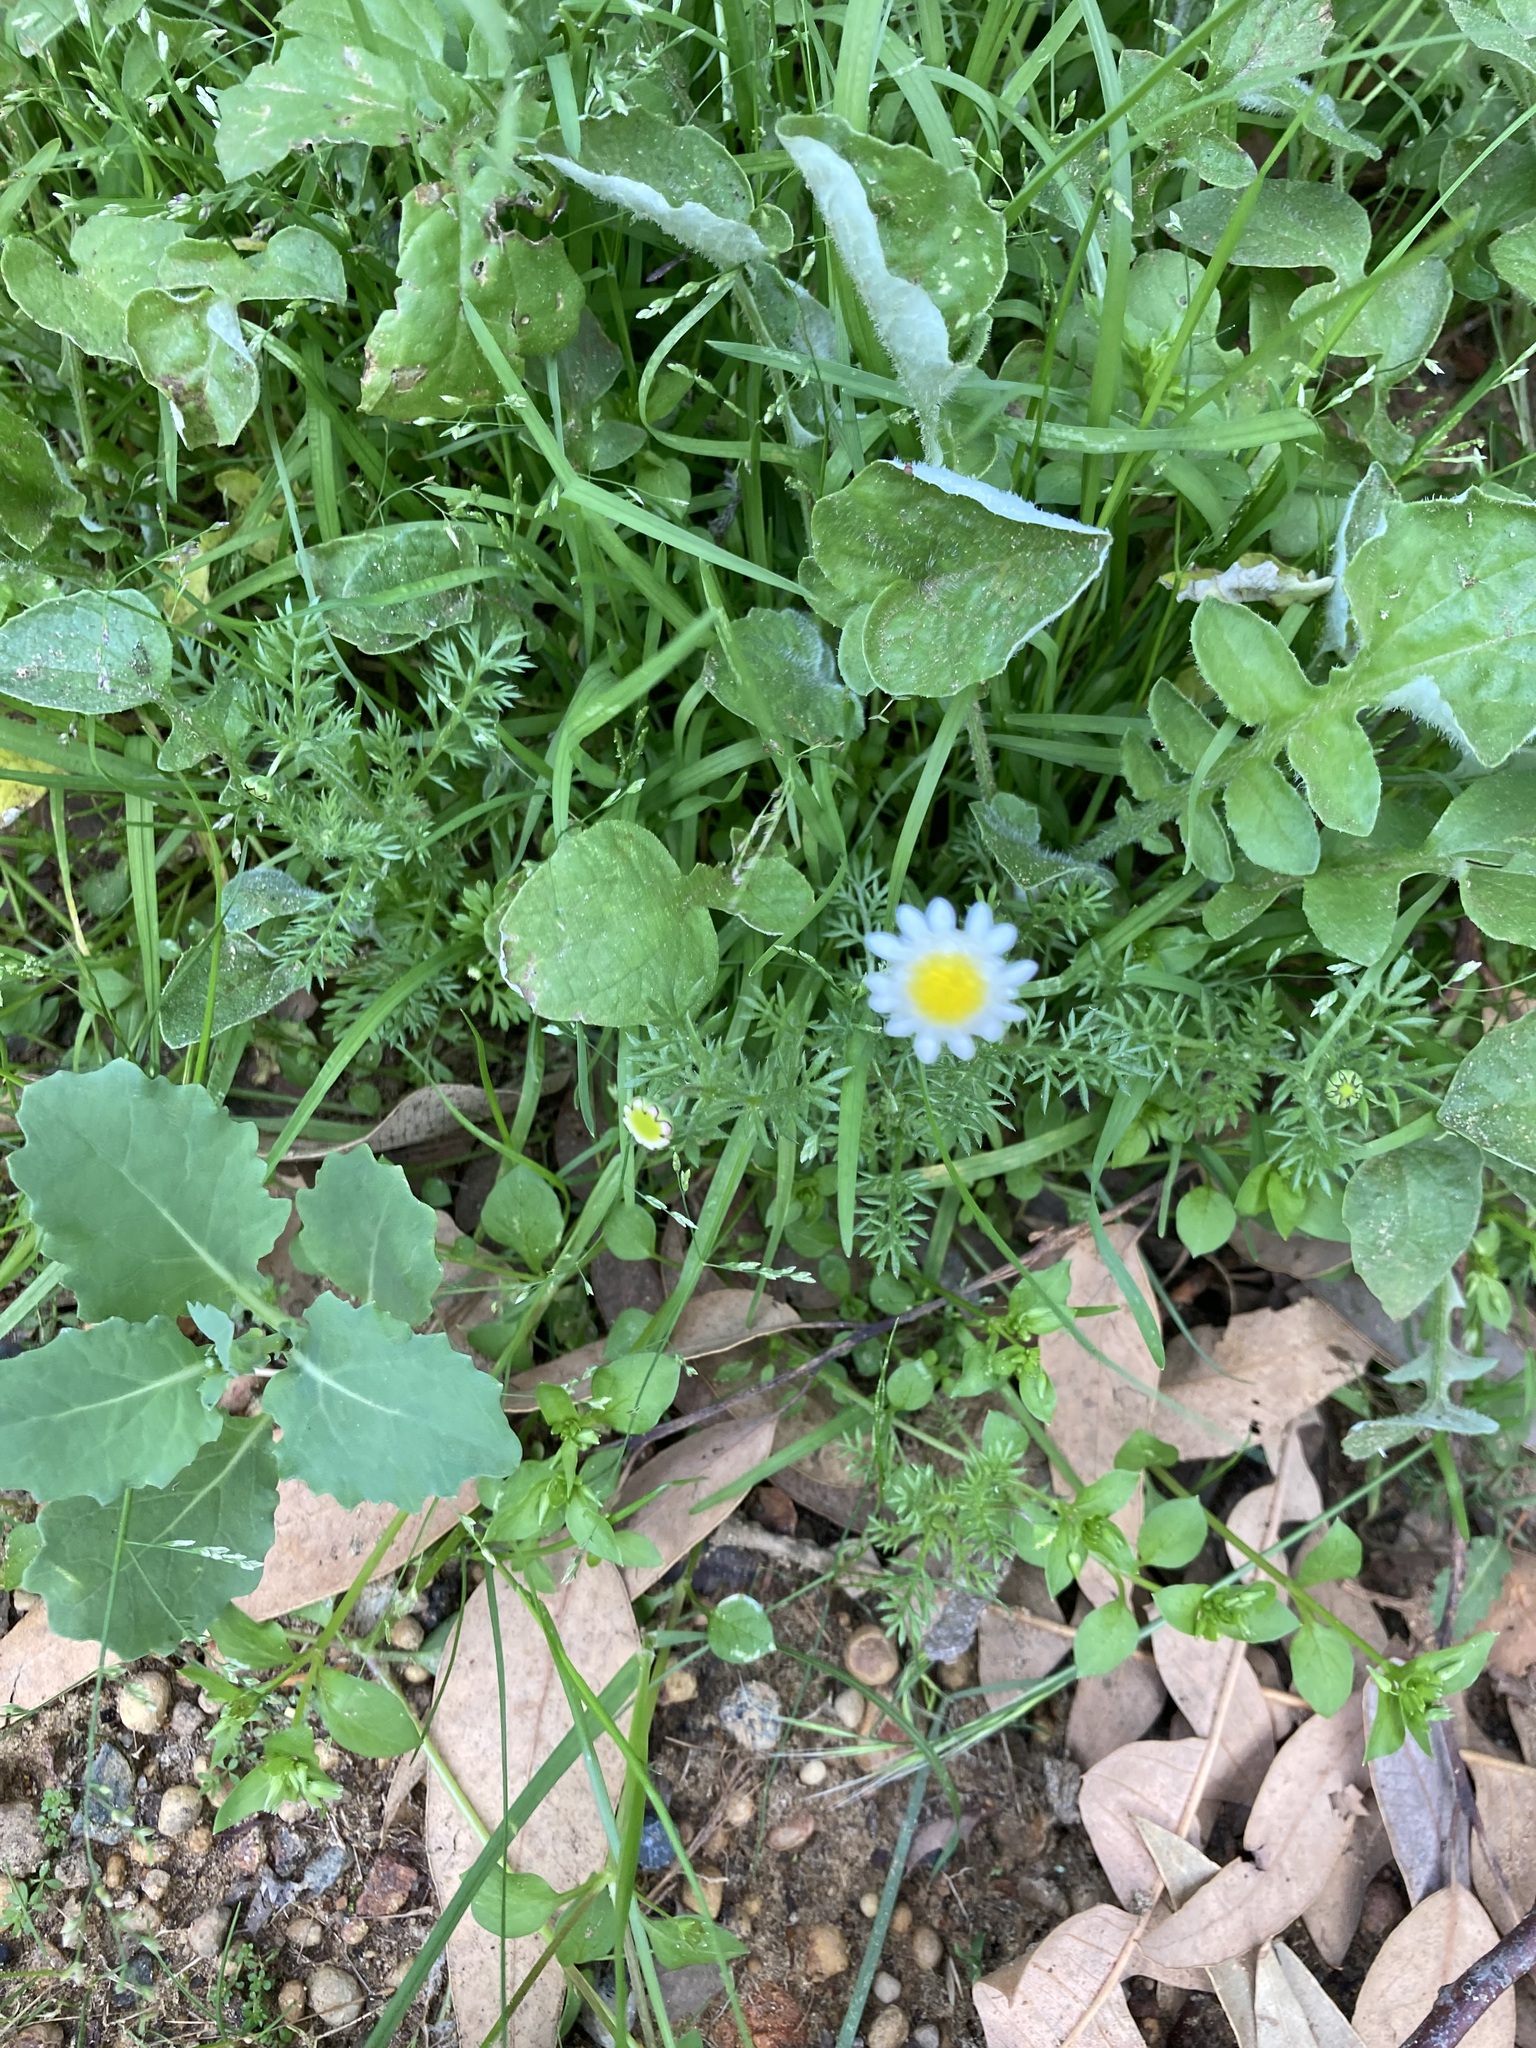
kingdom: Plantae
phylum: Tracheophyta
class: Magnoliopsida
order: Asterales
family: Asteraceae
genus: Cotula
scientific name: Cotula turbinata
